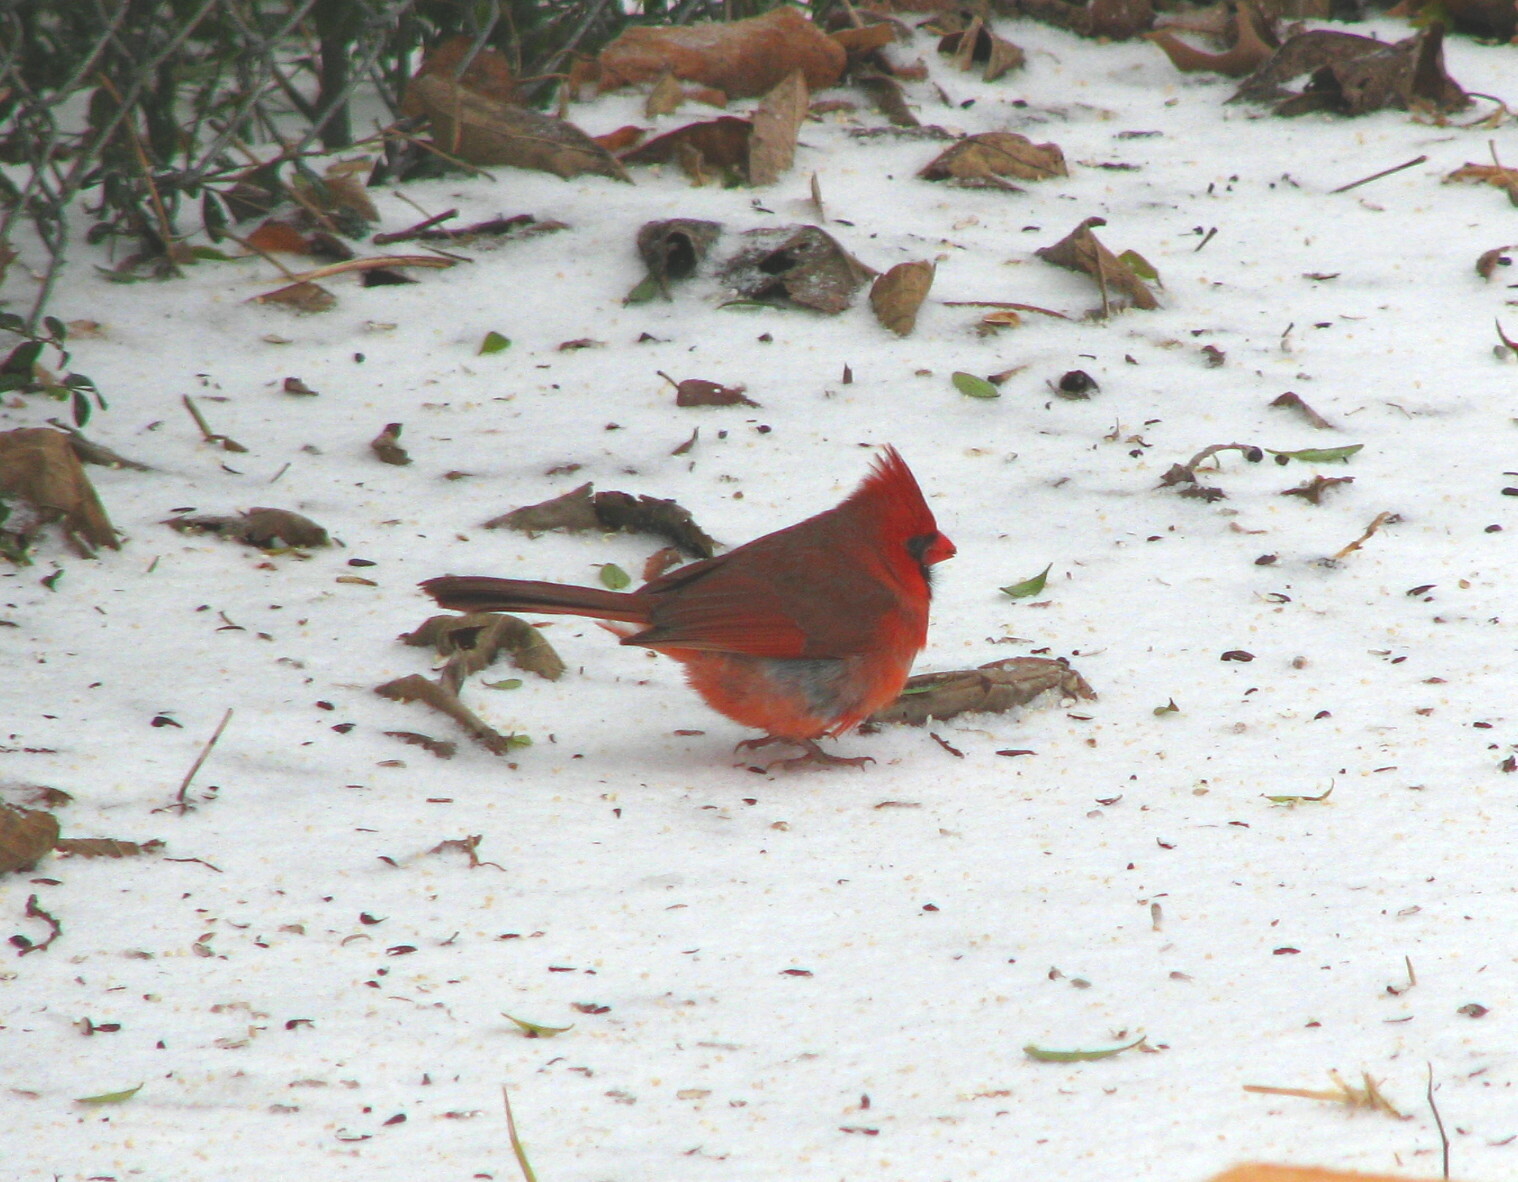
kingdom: Animalia
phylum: Chordata
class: Aves
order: Passeriformes
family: Cardinalidae
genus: Cardinalis
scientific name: Cardinalis cardinalis
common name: Northern cardinal
